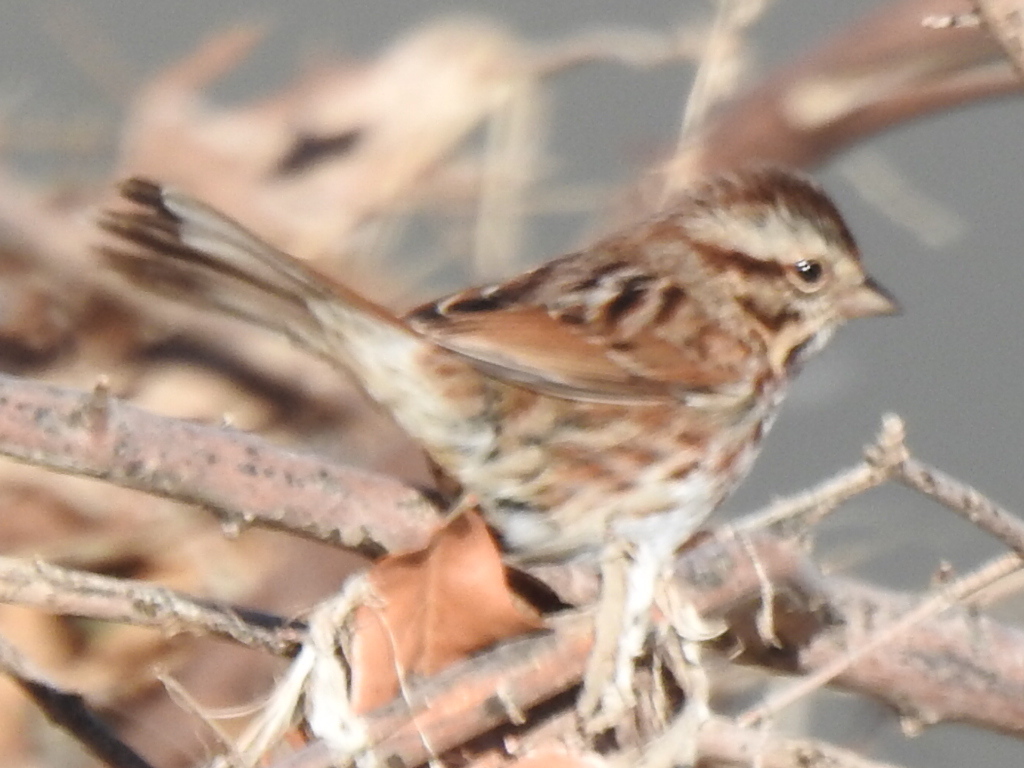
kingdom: Animalia
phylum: Chordata
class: Aves
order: Passeriformes
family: Passerellidae
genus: Melospiza
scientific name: Melospiza melodia
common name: Song sparrow
